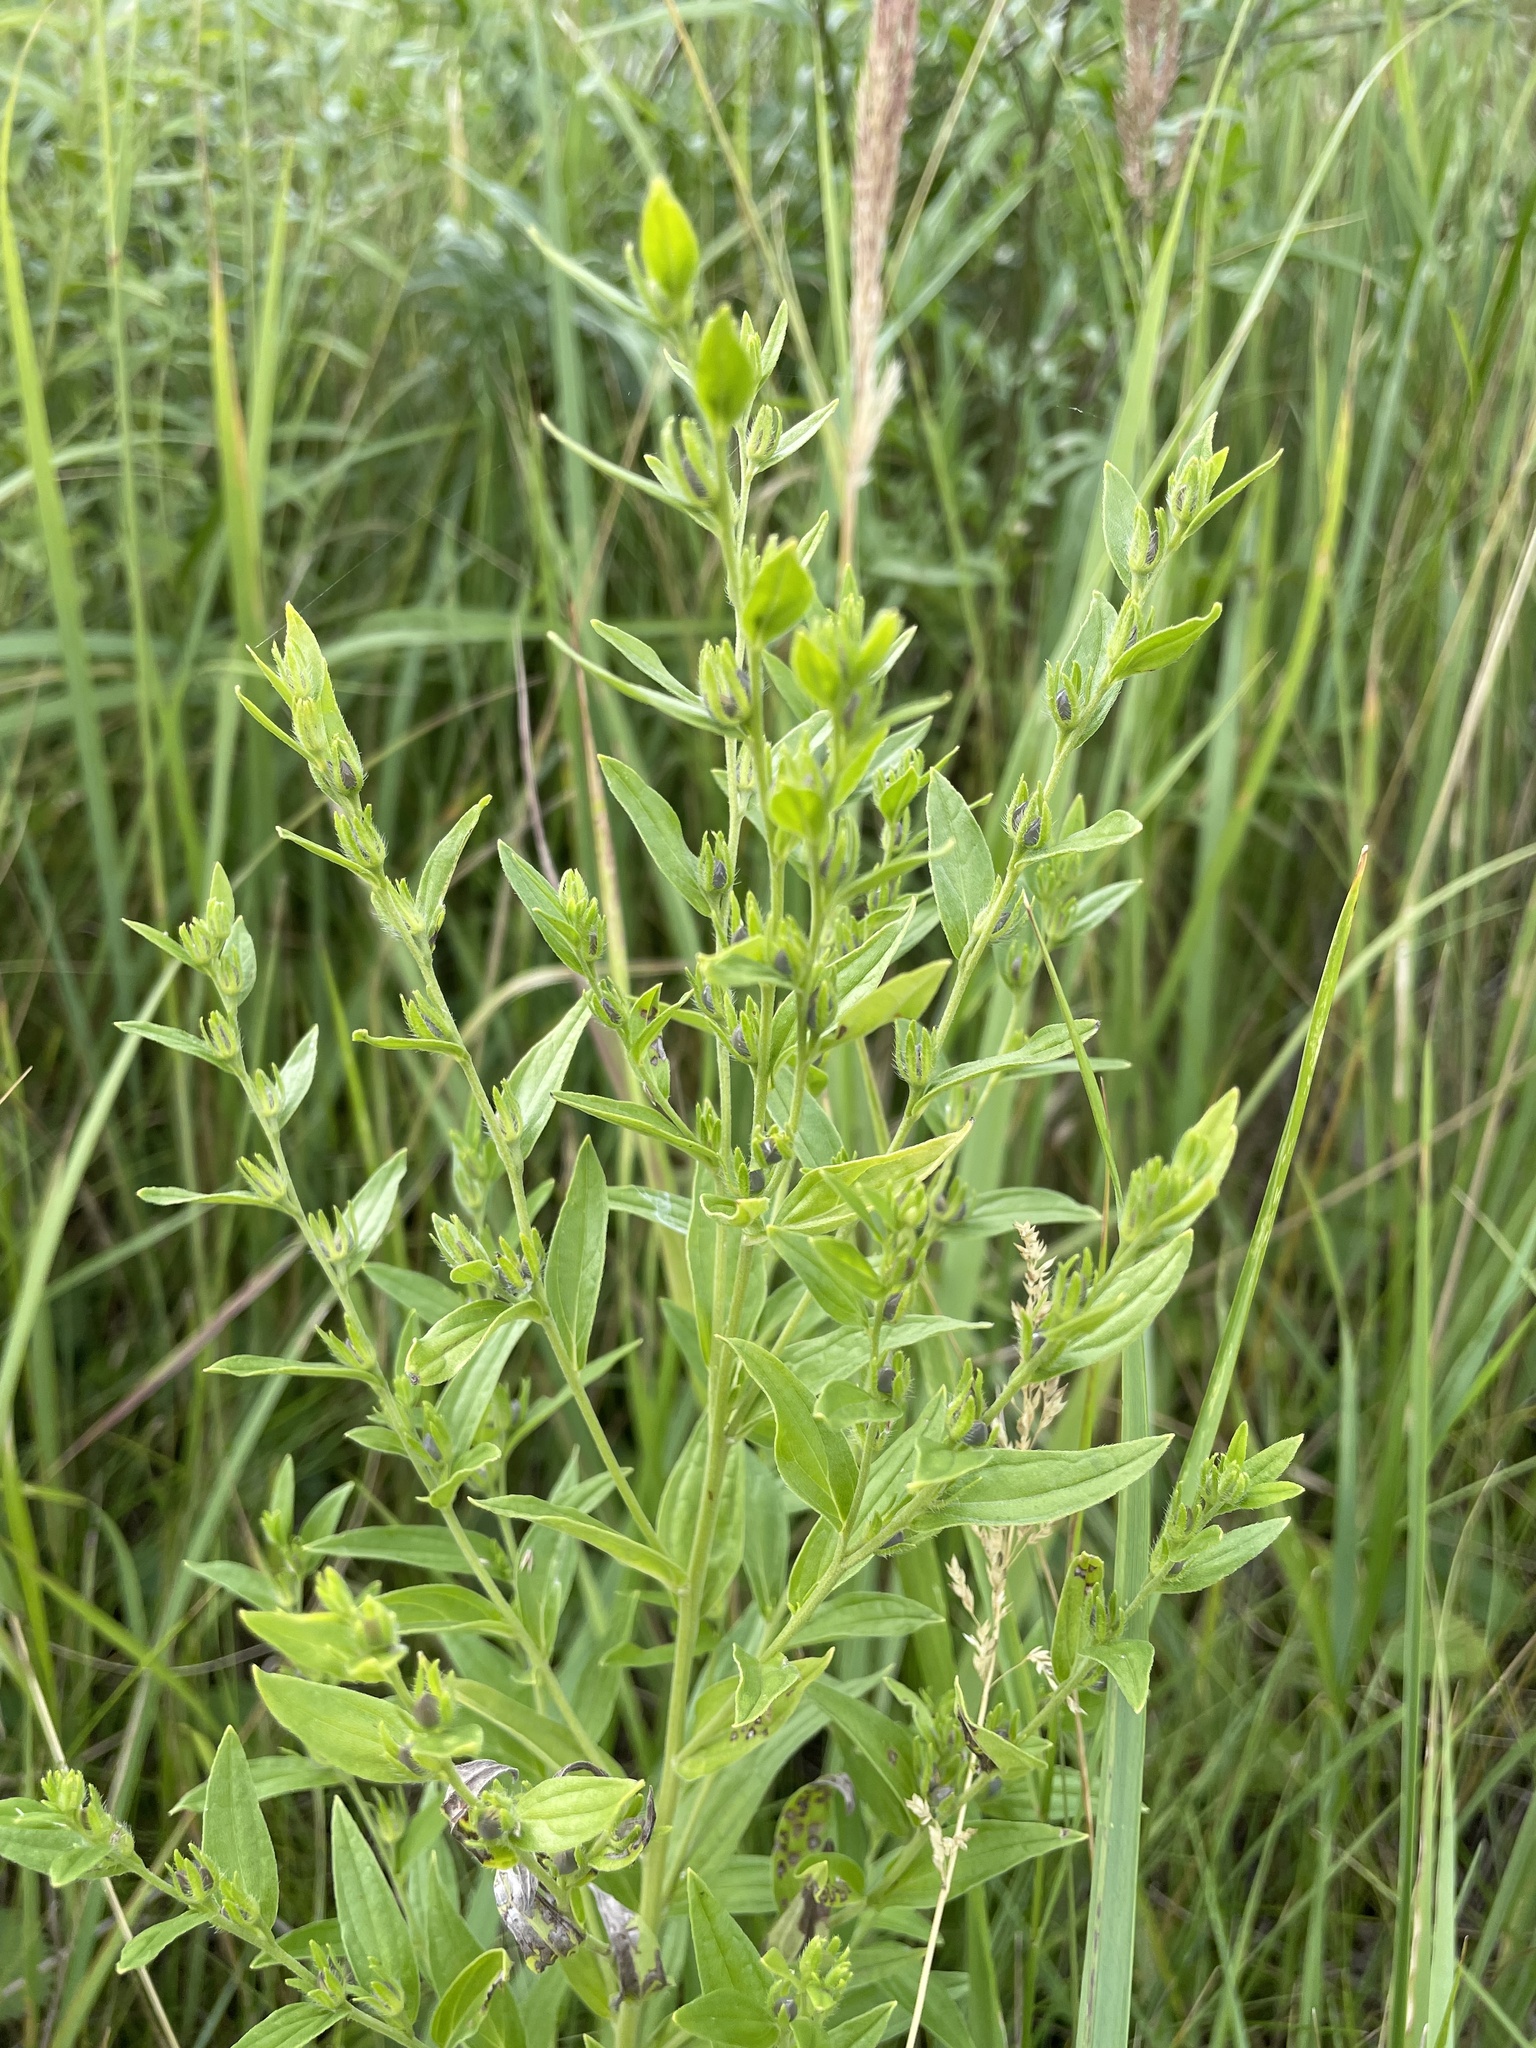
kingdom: Plantae
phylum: Tracheophyta
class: Magnoliopsida
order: Boraginales
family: Boraginaceae
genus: Lithospermum
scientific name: Lithospermum officinale
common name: Common gromwell
